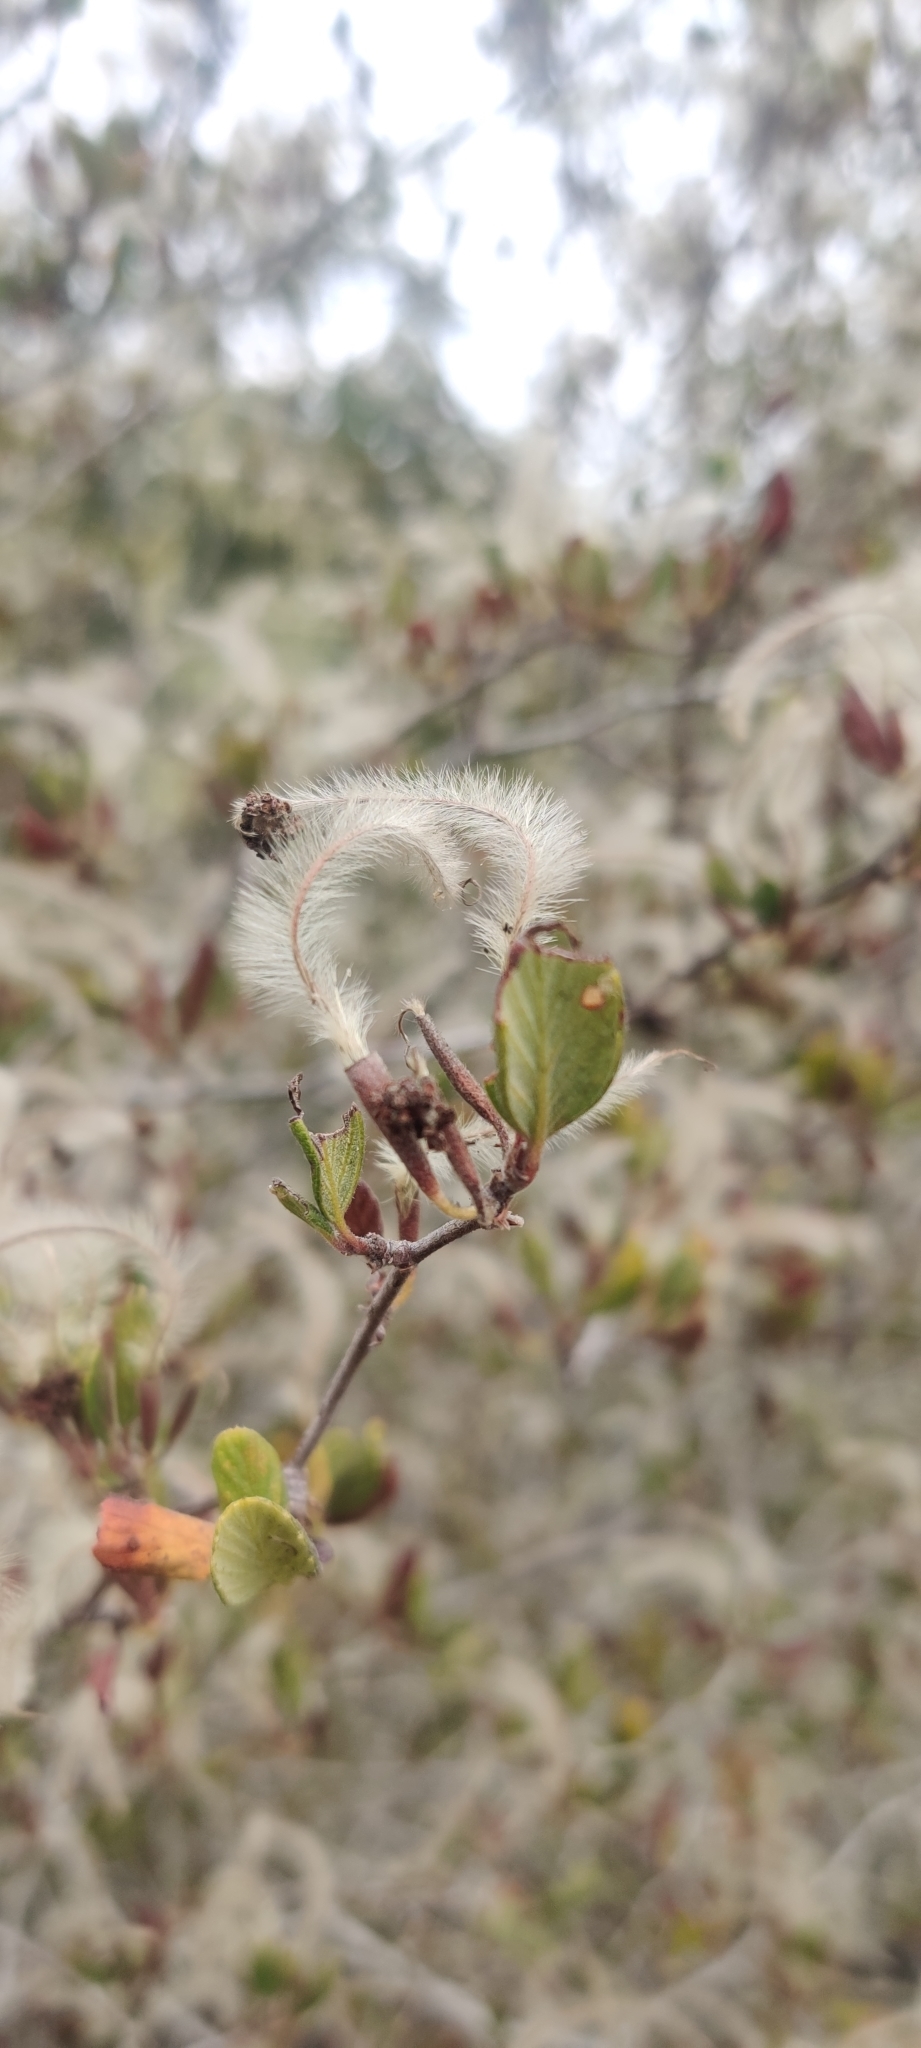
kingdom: Plantae
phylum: Tracheophyta
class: Magnoliopsida
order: Rosales
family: Rosaceae
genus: Cercocarpus
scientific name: Cercocarpus betuloides
